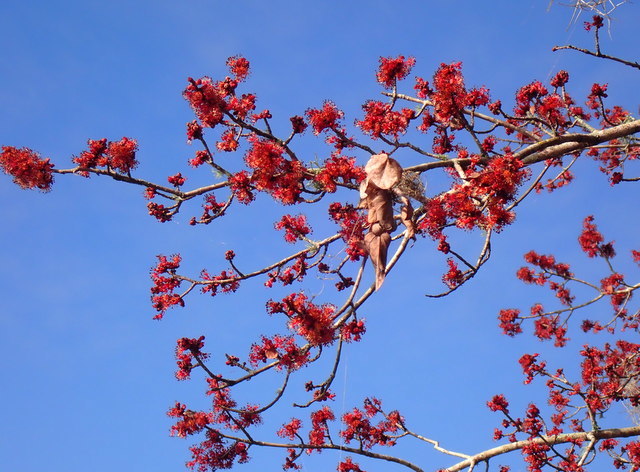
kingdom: Plantae
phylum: Tracheophyta
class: Magnoliopsida
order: Sapindales
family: Sapindaceae
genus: Acer
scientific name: Acer rubrum
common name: Red maple
